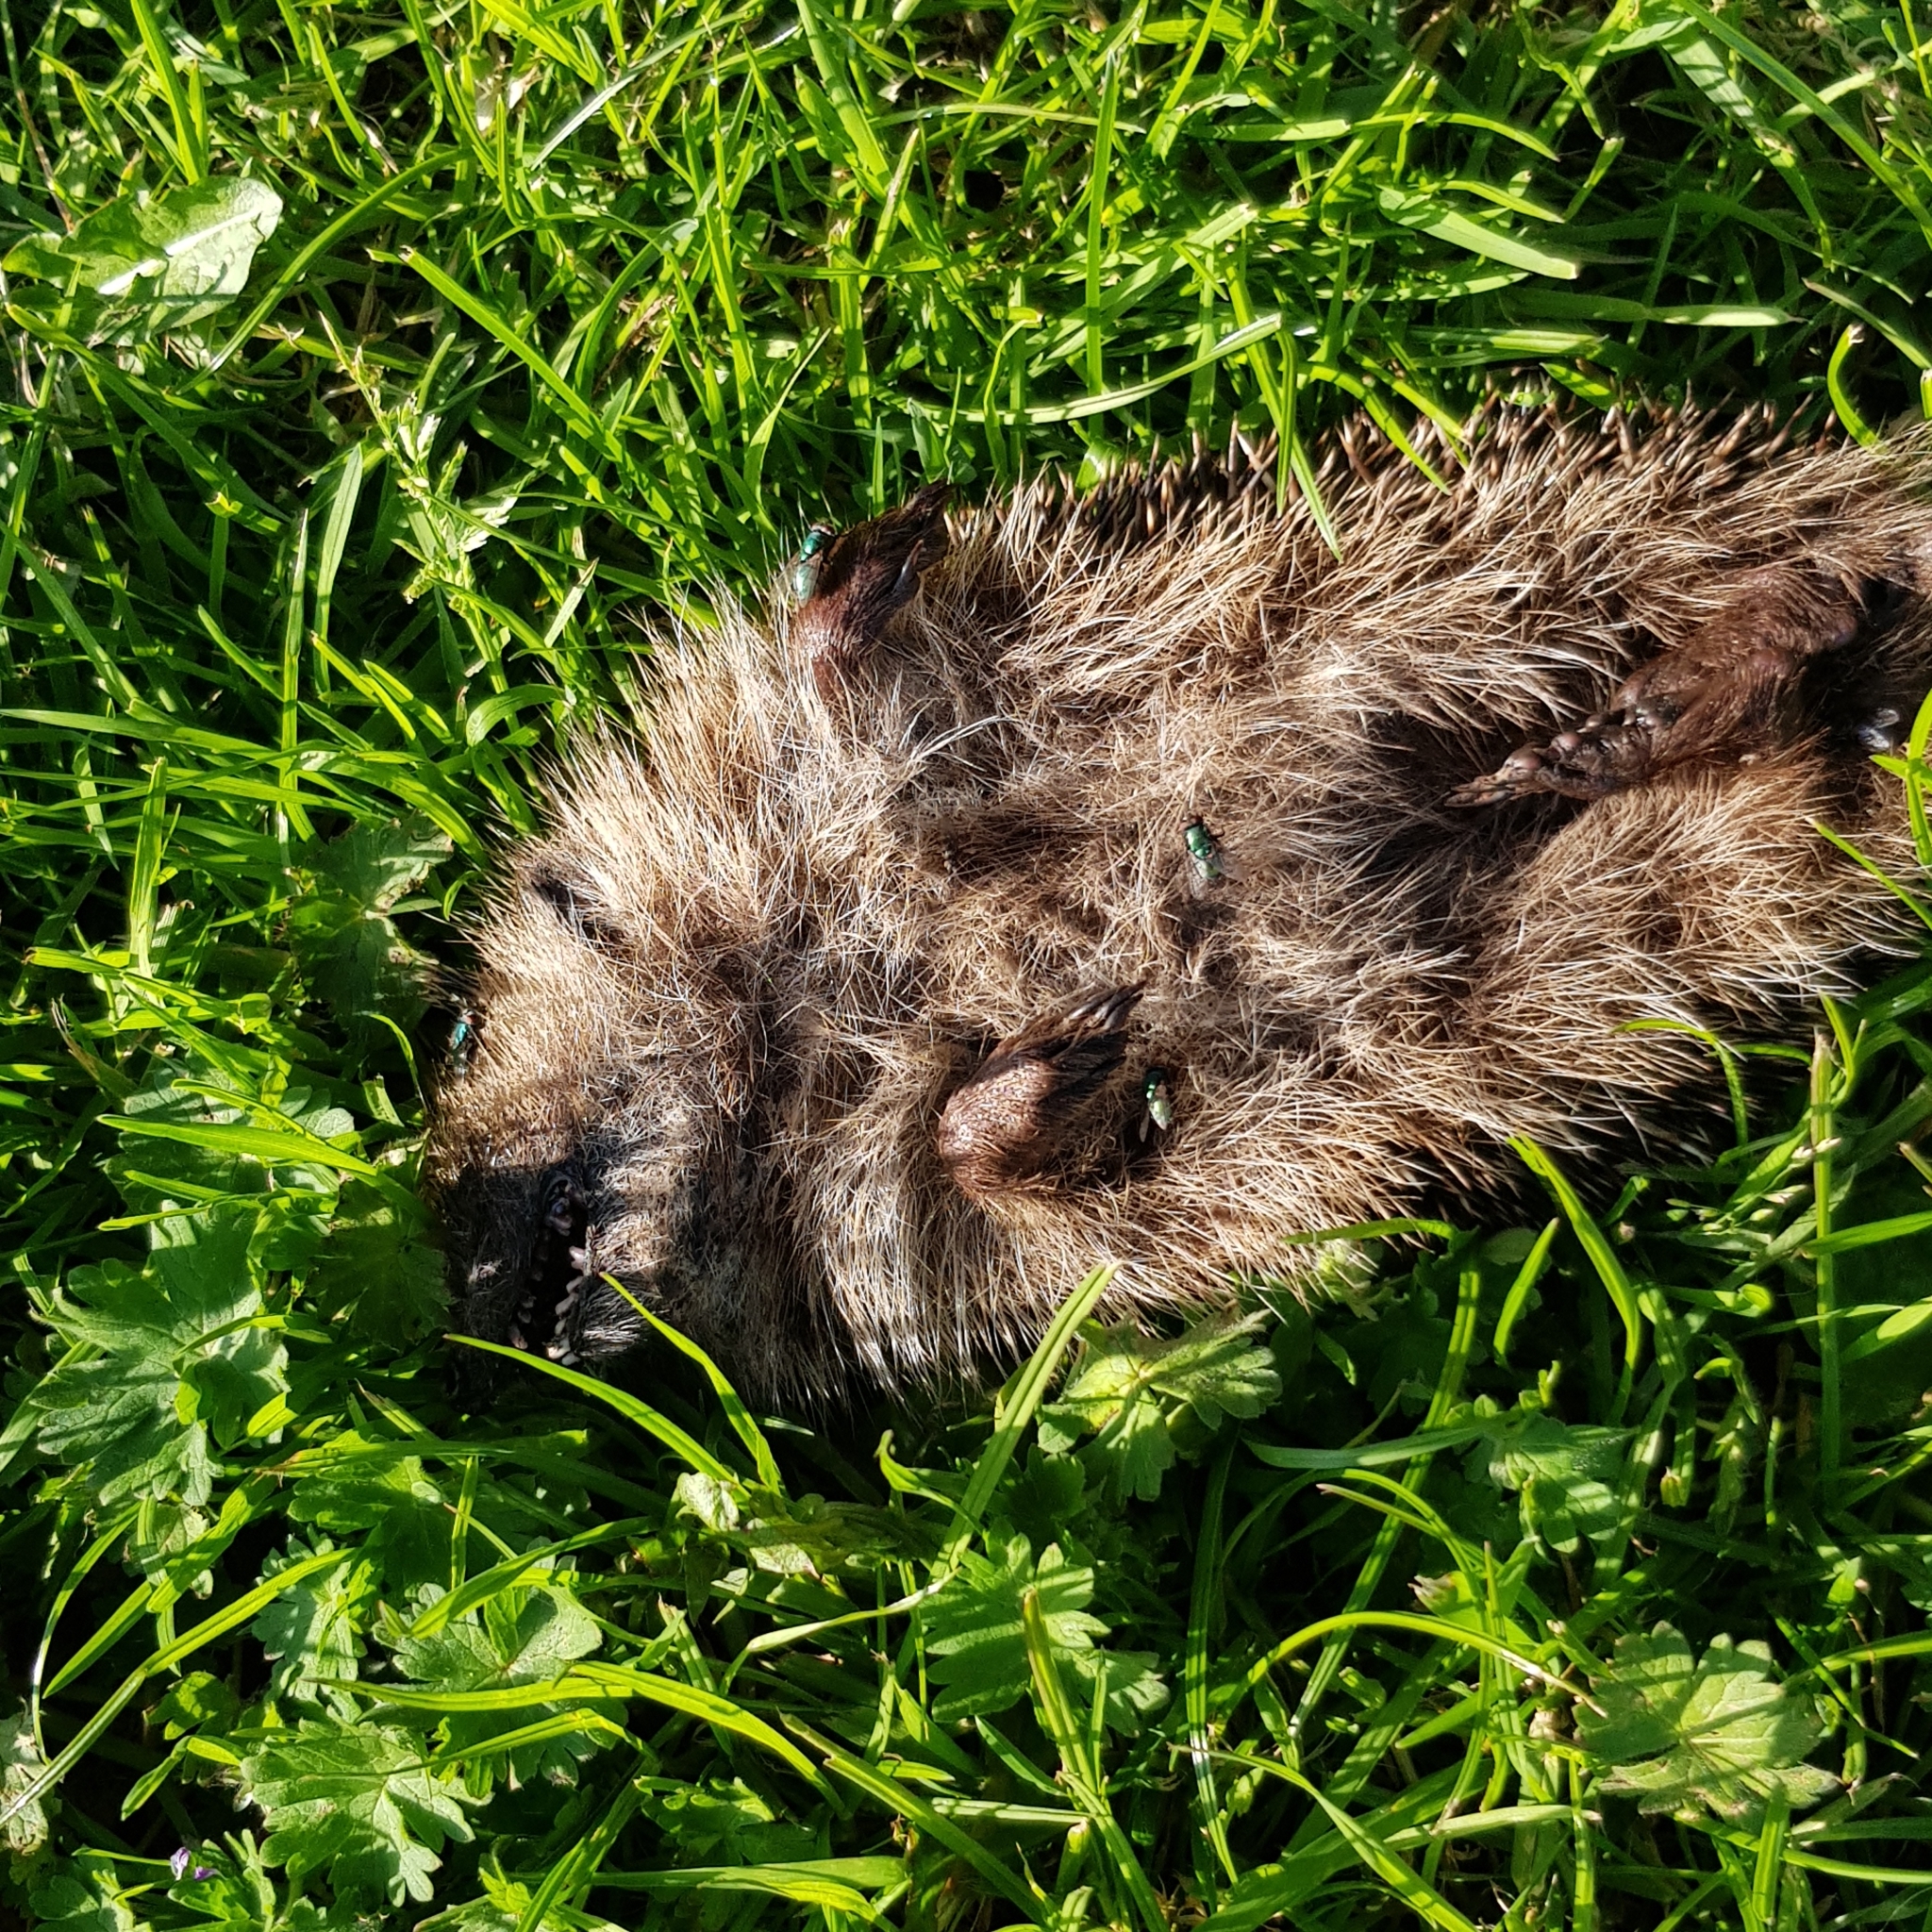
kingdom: Animalia
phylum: Chordata
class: Mammalia
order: Erinaceomorpha
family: Erinaceidae
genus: Erinaceus
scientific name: Erinaceus europaeus
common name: West european hedgehog
